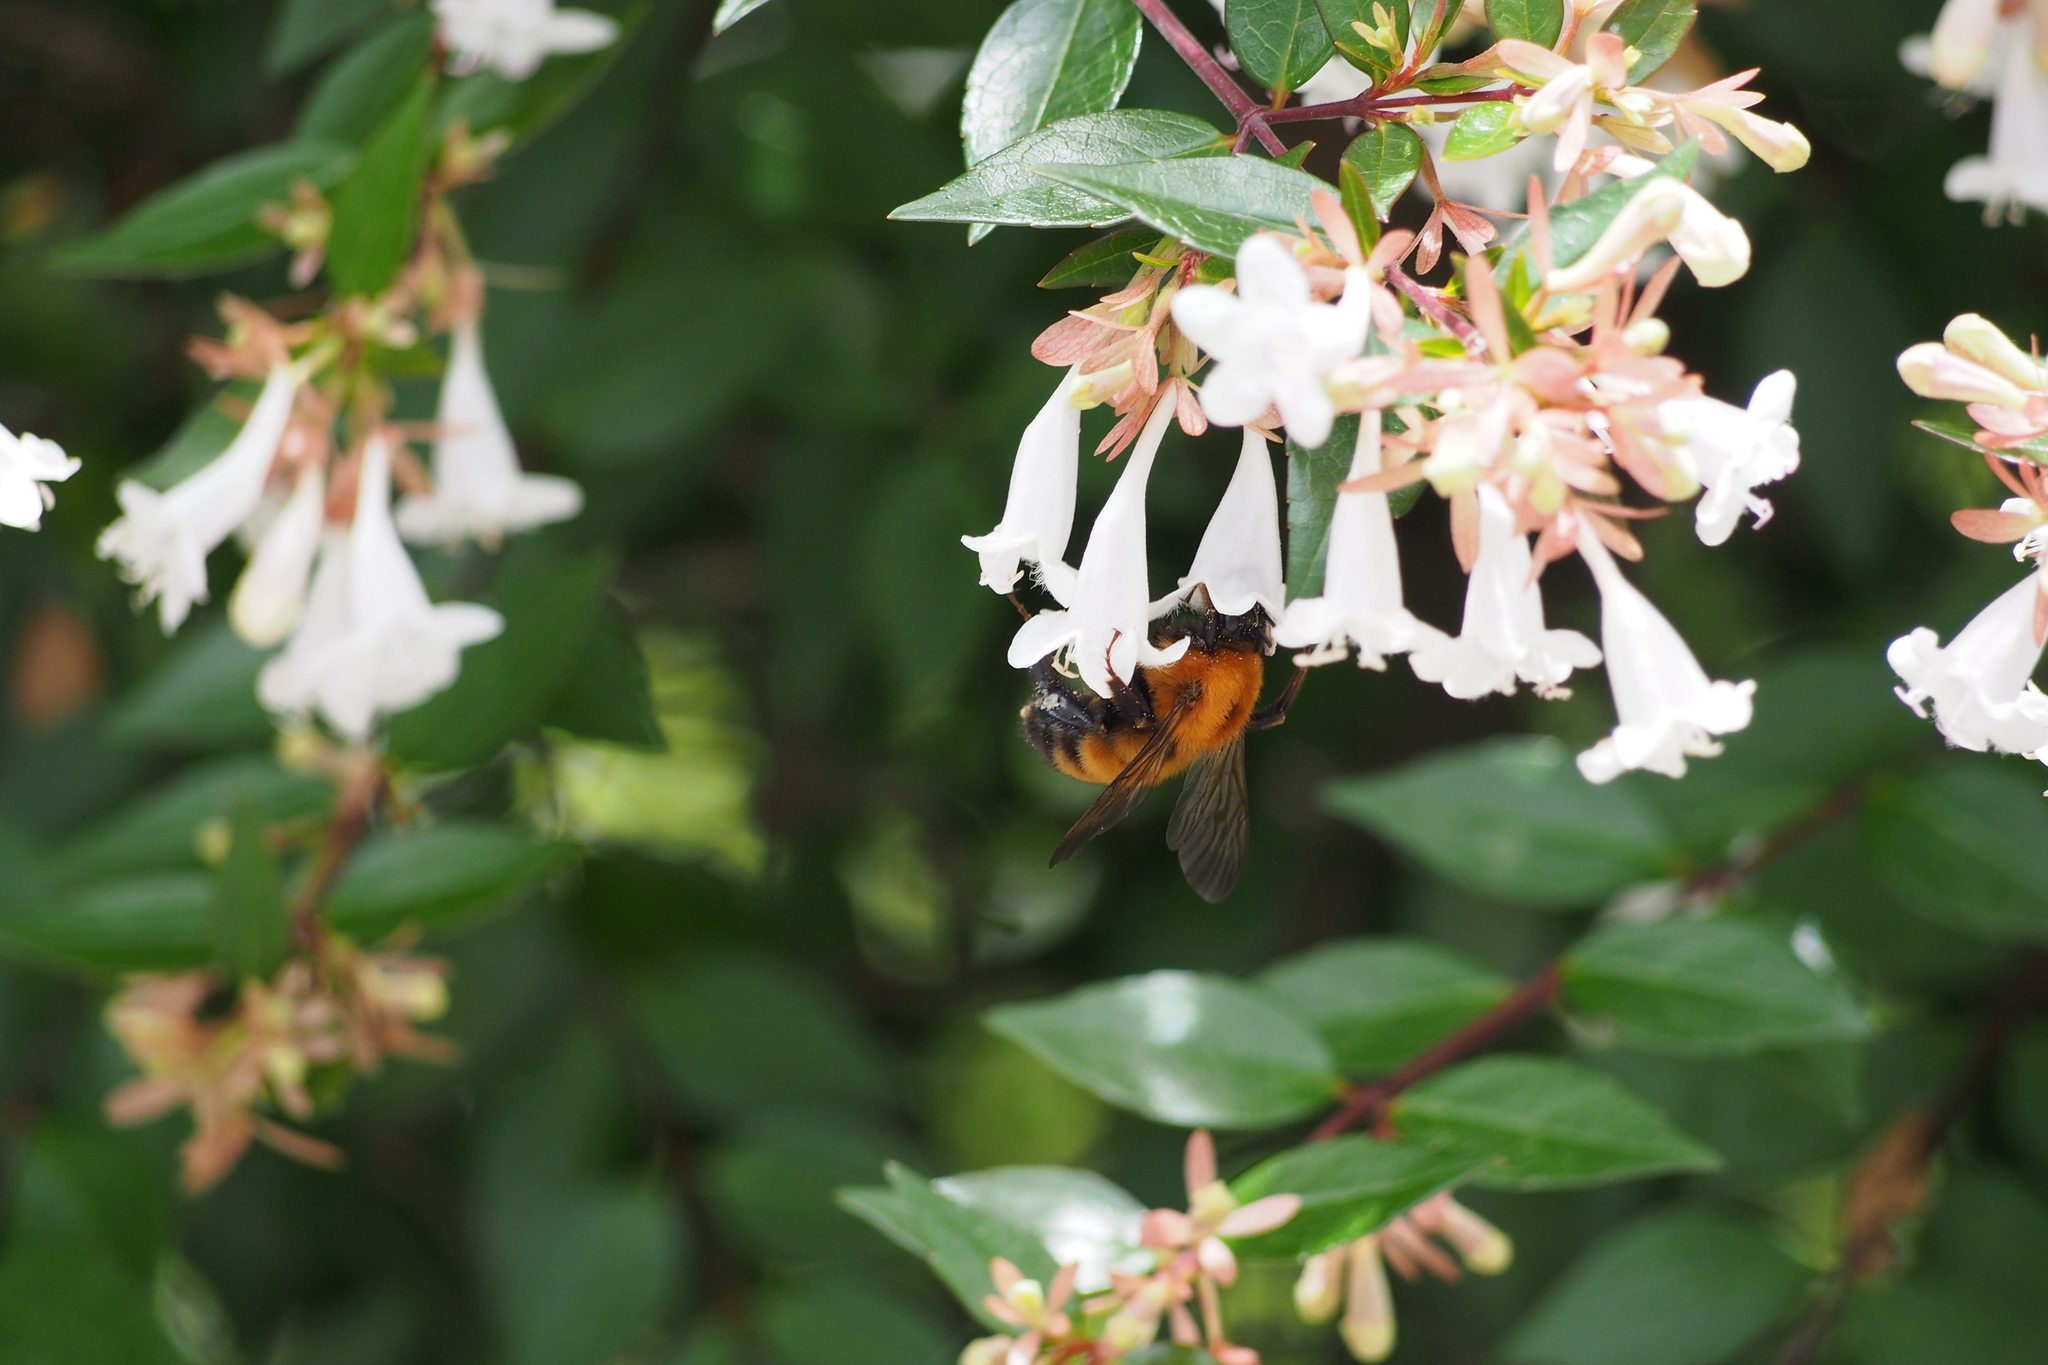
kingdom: Animalia
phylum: Arthropoda
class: Insecta
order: Hymenoptera
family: Apidae
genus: Bombus
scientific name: Bombus diversus
